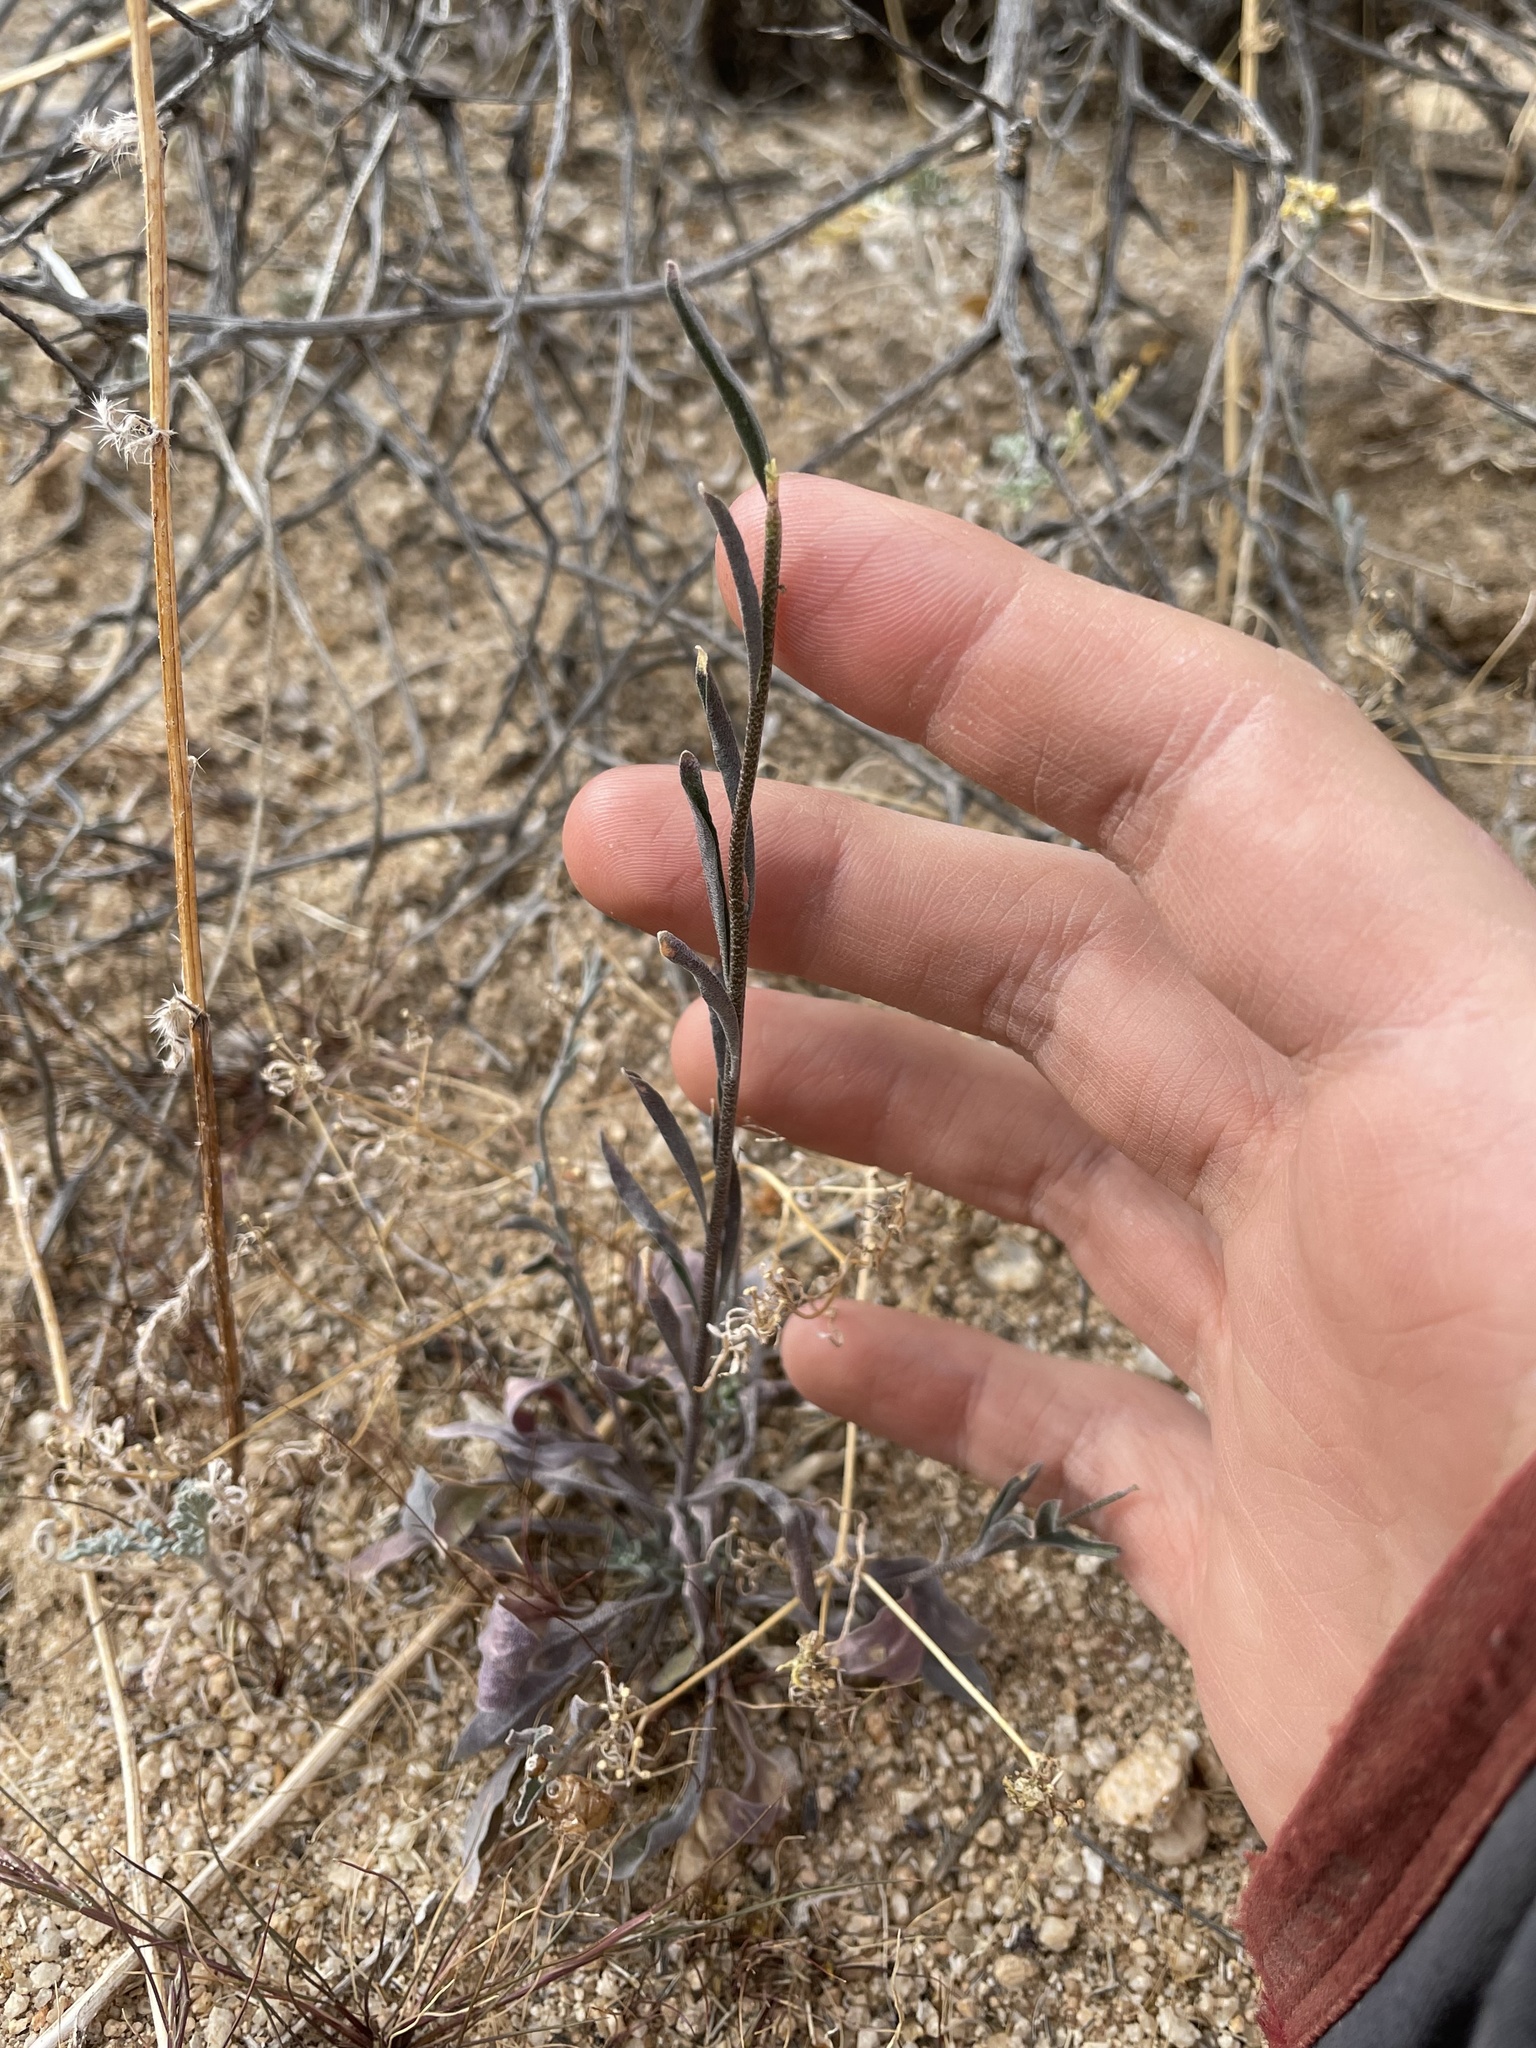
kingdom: Plantae
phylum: Tracheophyta
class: Magnoliopsida
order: Brassicales
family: Brassicaceae
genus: Streptanthus
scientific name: Streptanthus longirostris
